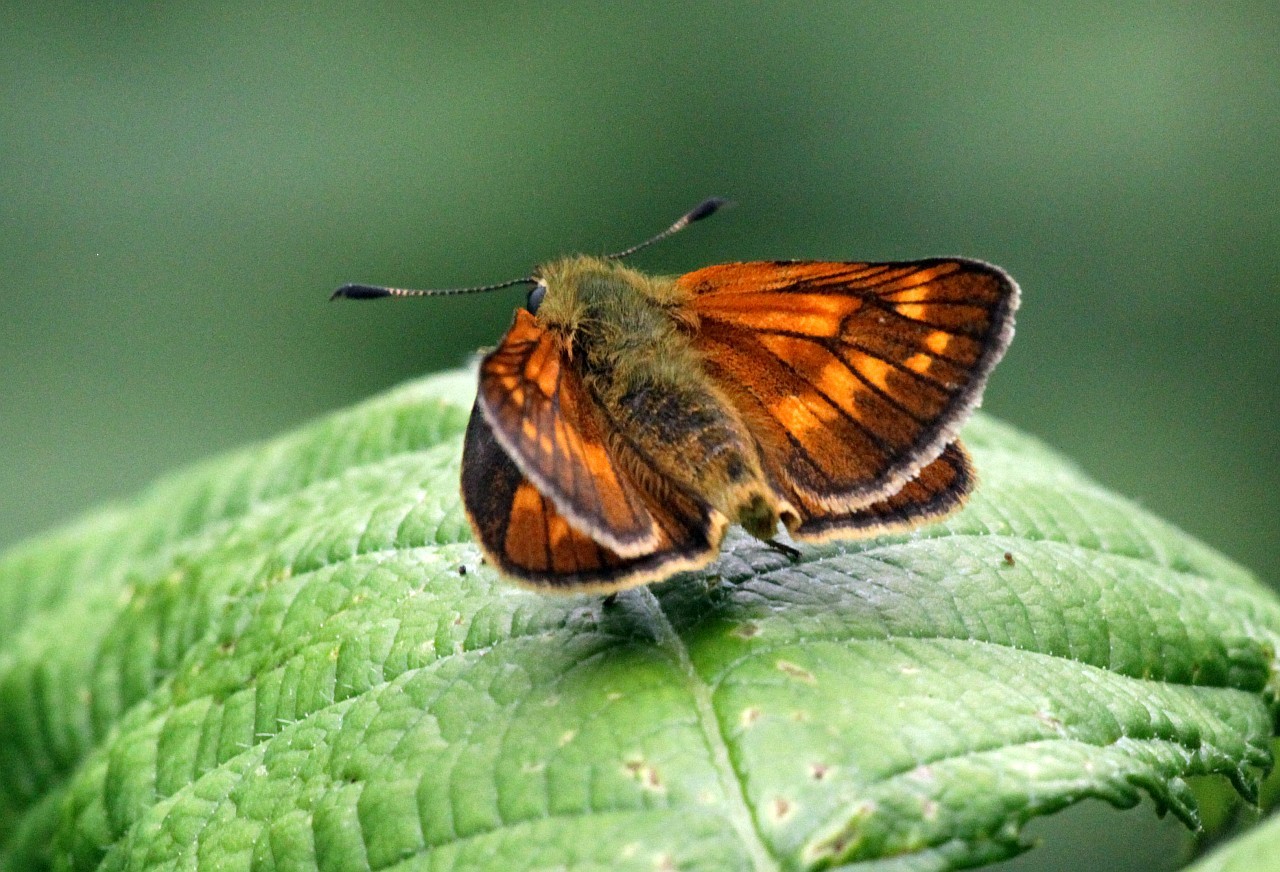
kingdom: Animalia
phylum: Arthropoda
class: Insecta
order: Lepidoptera
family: Hesperiidae
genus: Ochlodes
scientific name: Ochlodes venata
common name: Large skipper
